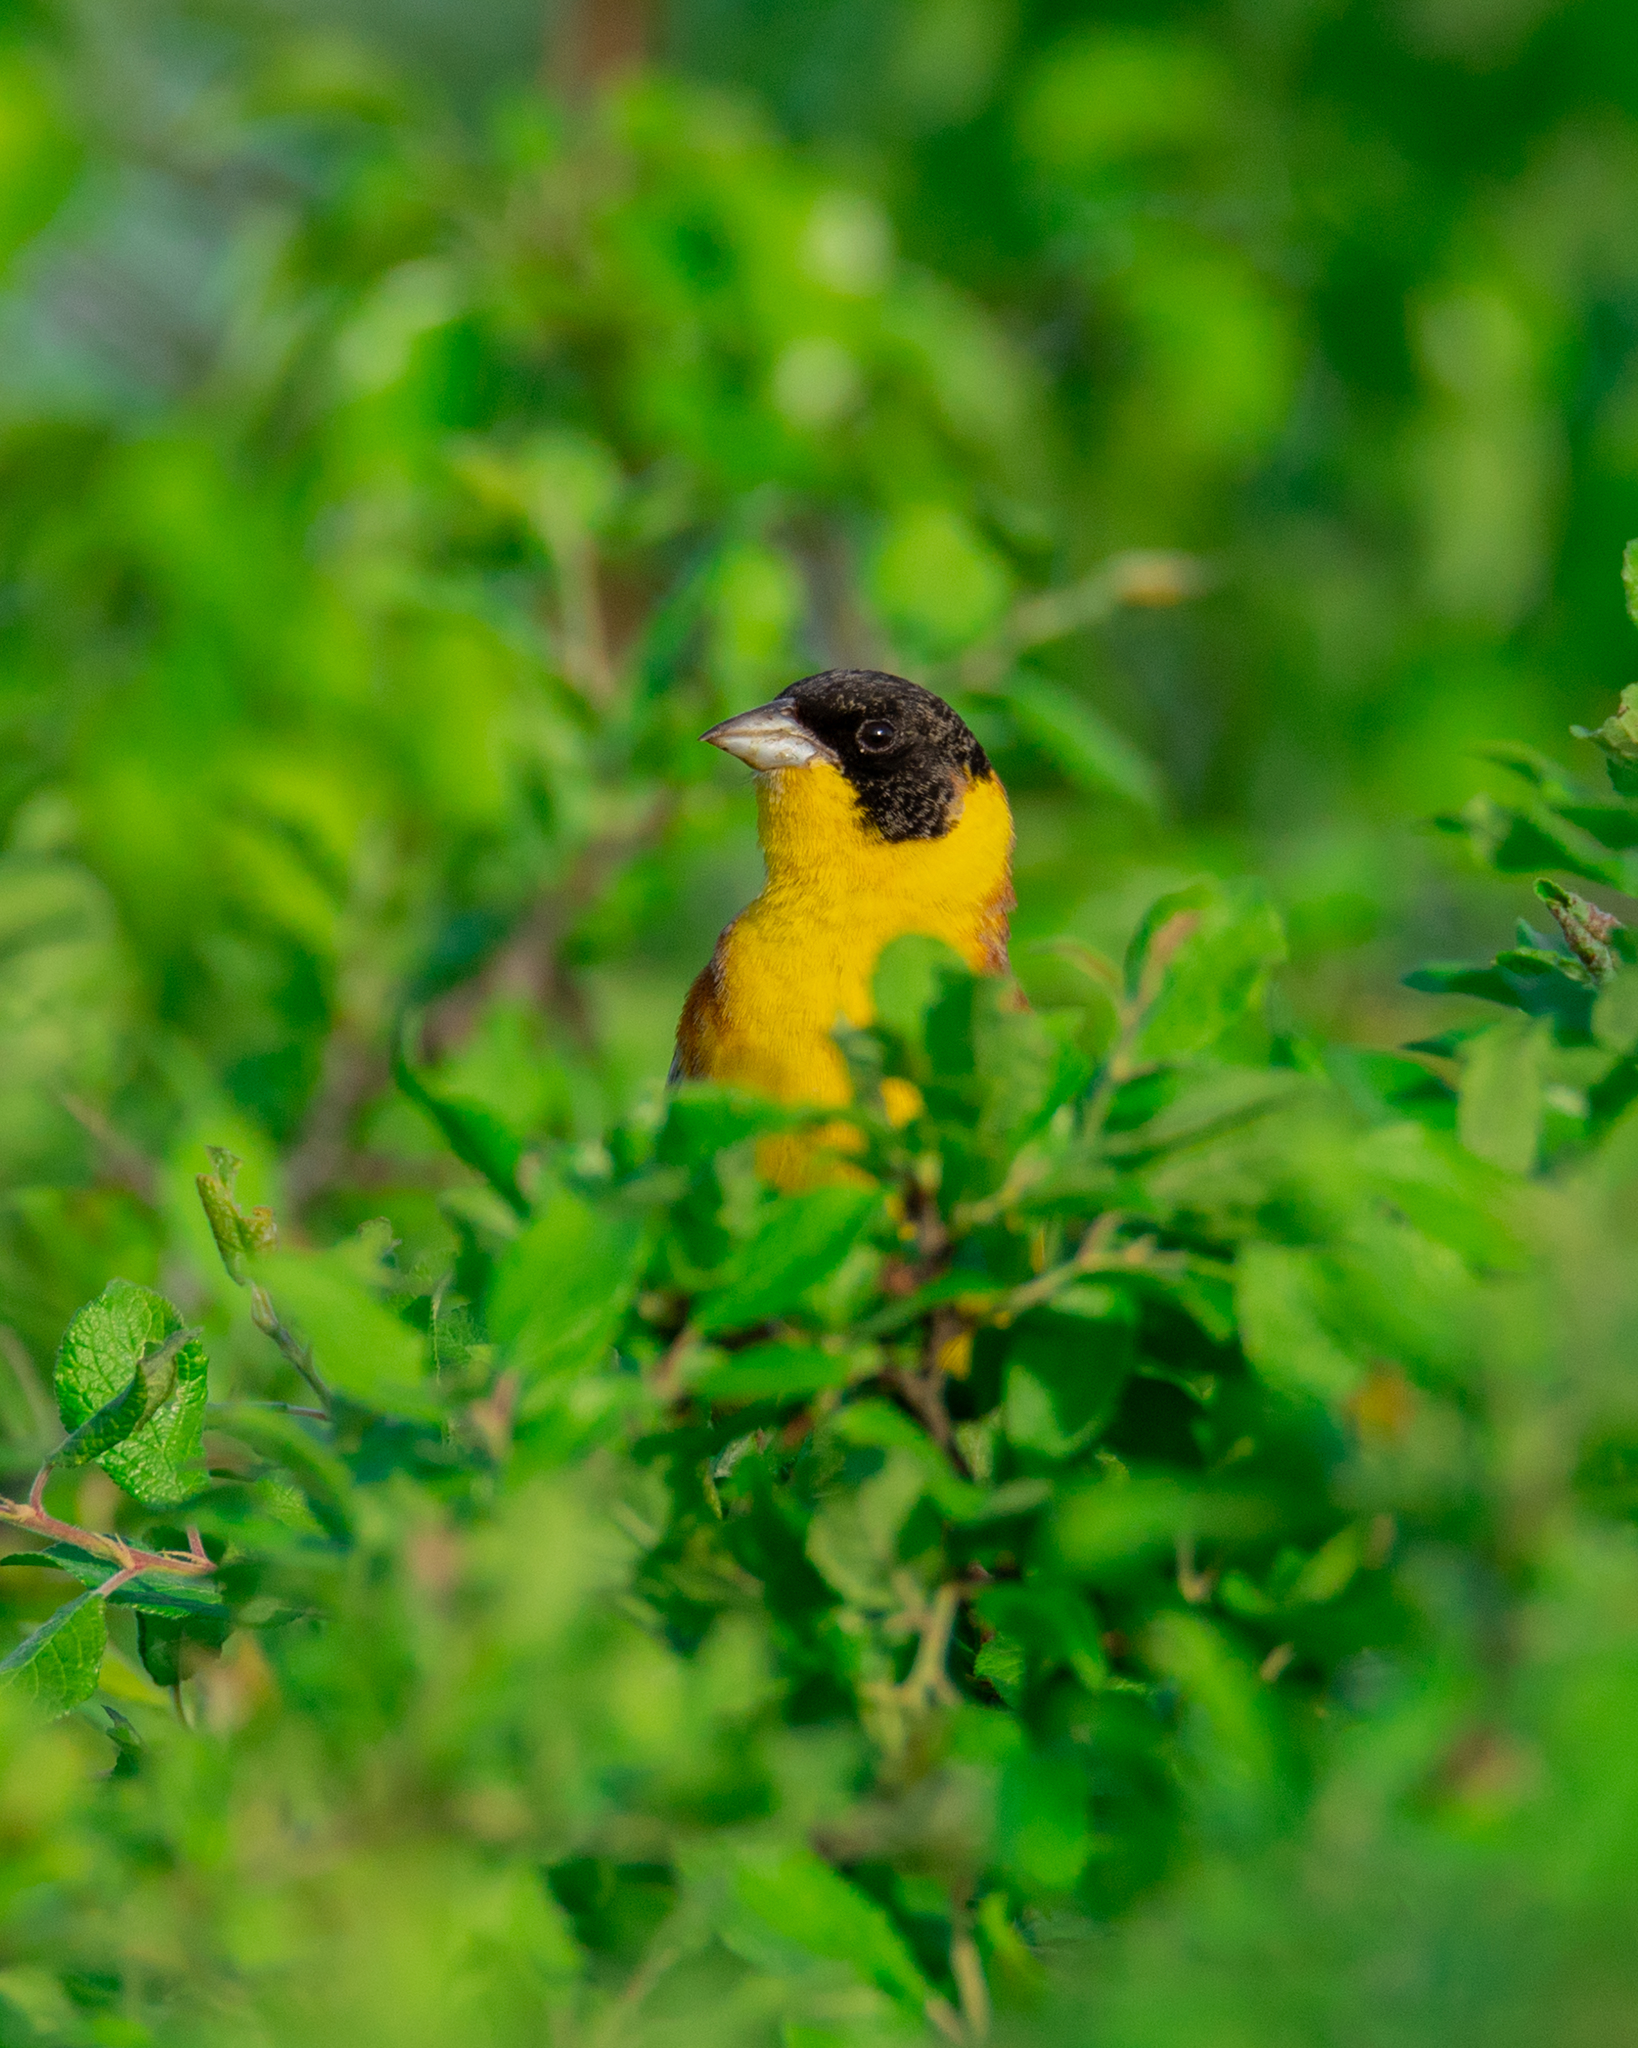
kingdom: Animalia
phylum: Chordata
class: Aves
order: Passeriformes
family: Emberizidae
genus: Emberiza
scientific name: Emberiza melanocephala
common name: Black-headed bunting
